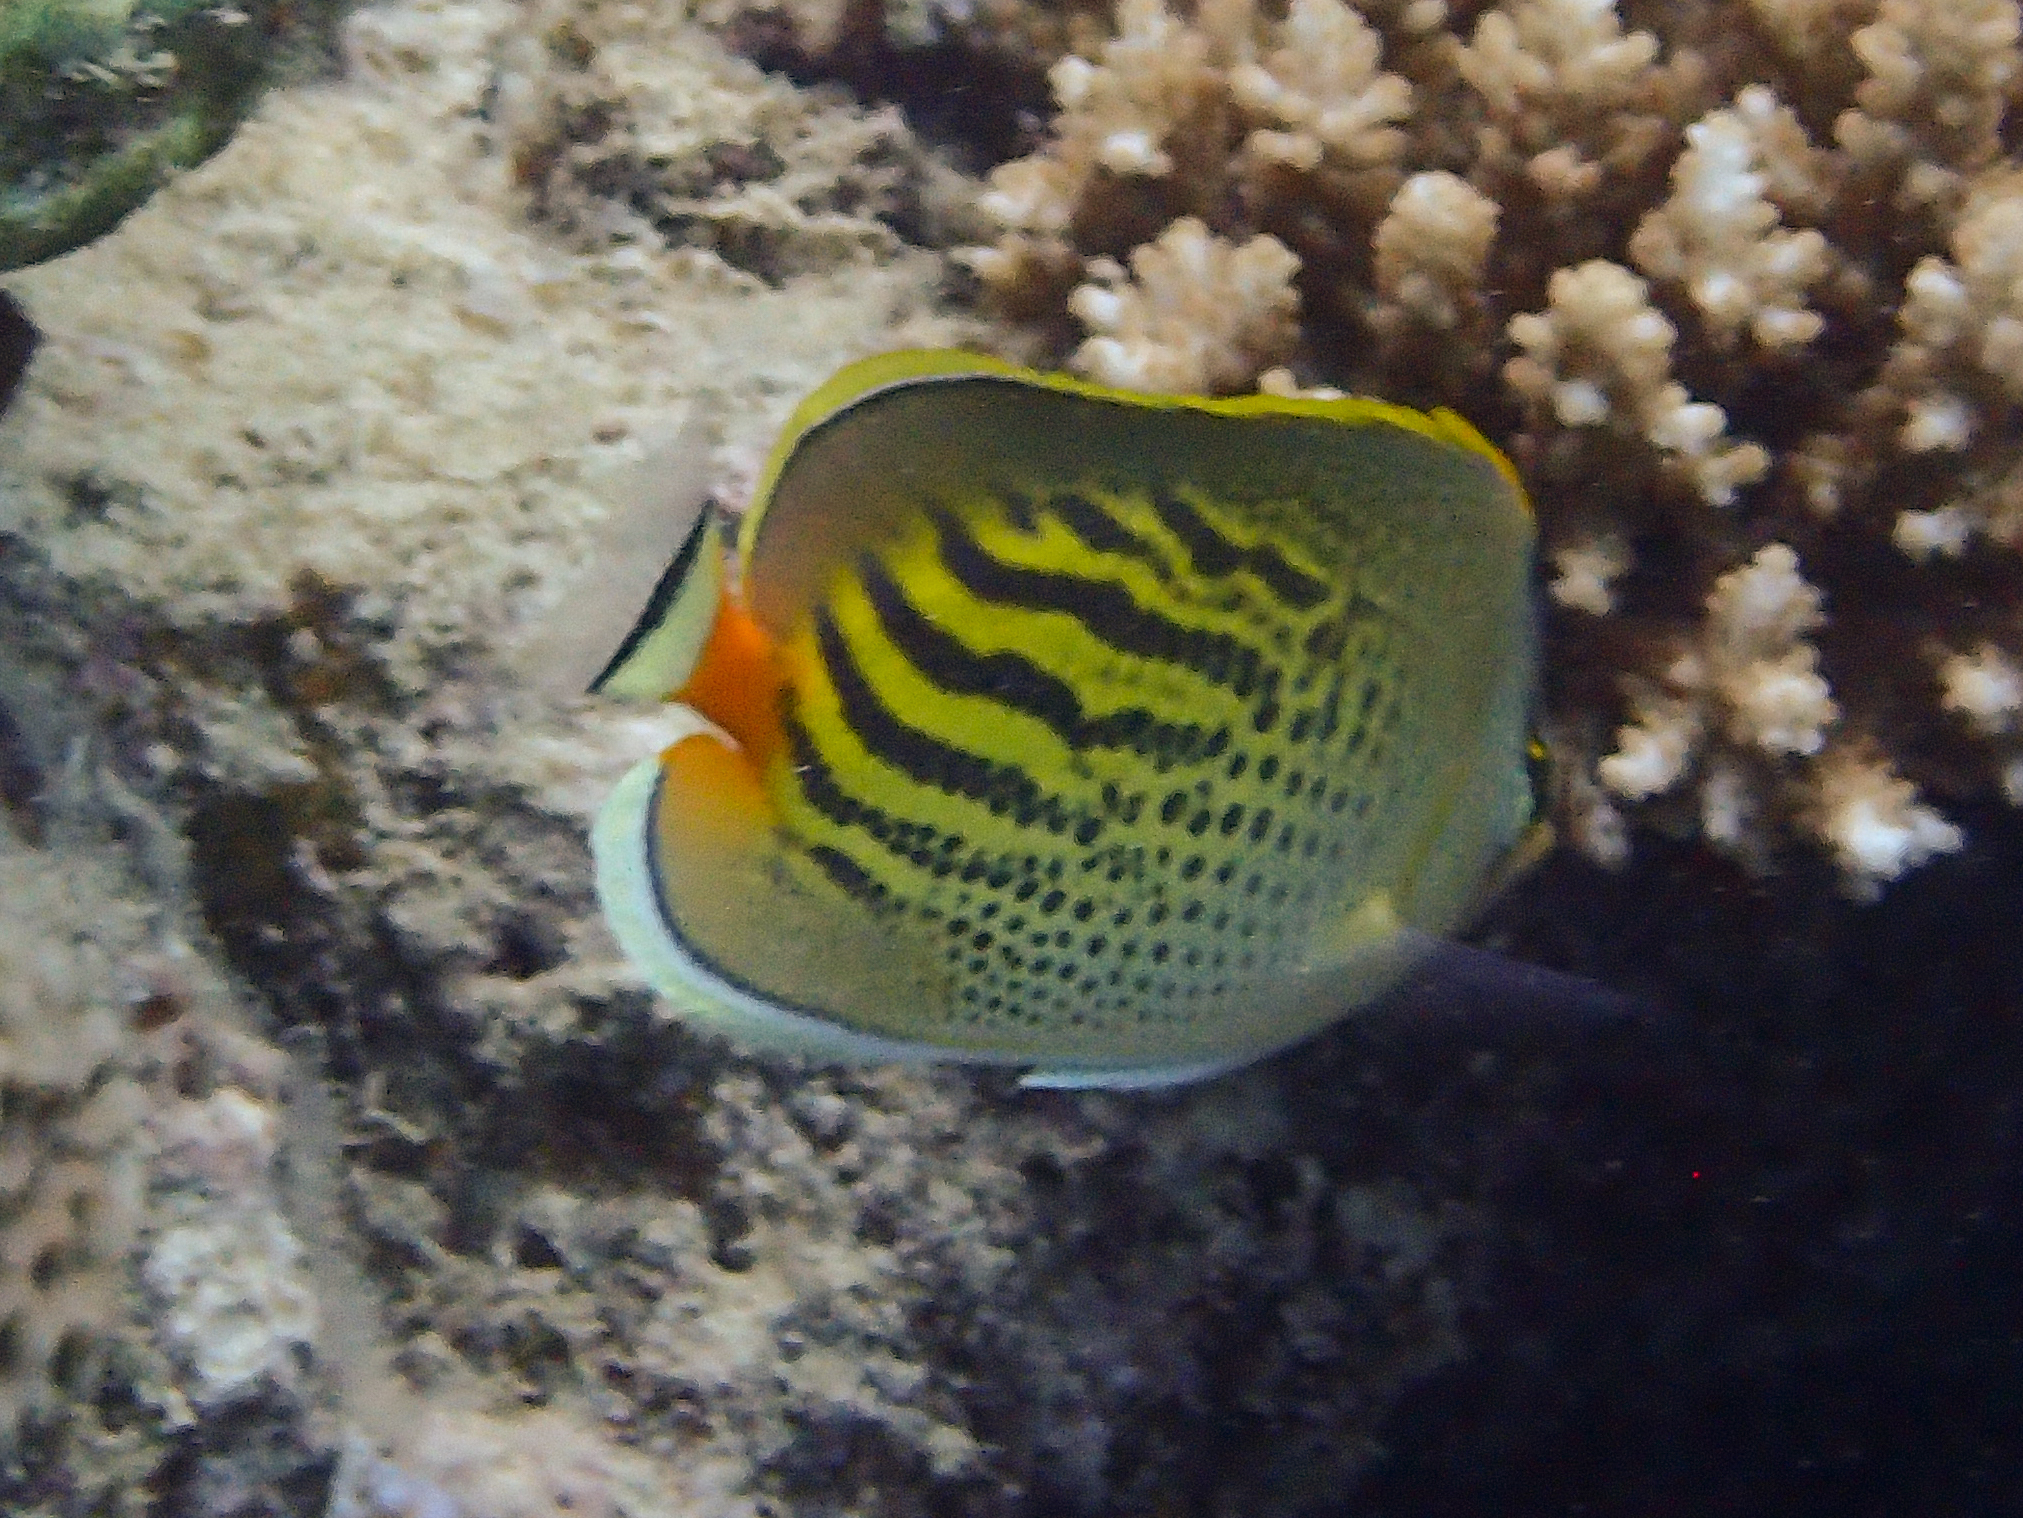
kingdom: Animalia
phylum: Chordata
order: Perciformes
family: Chaetodontidae
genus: Chaetodon
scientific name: Chaetodon pelewensis
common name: Dot-and-dash butterflyfish
